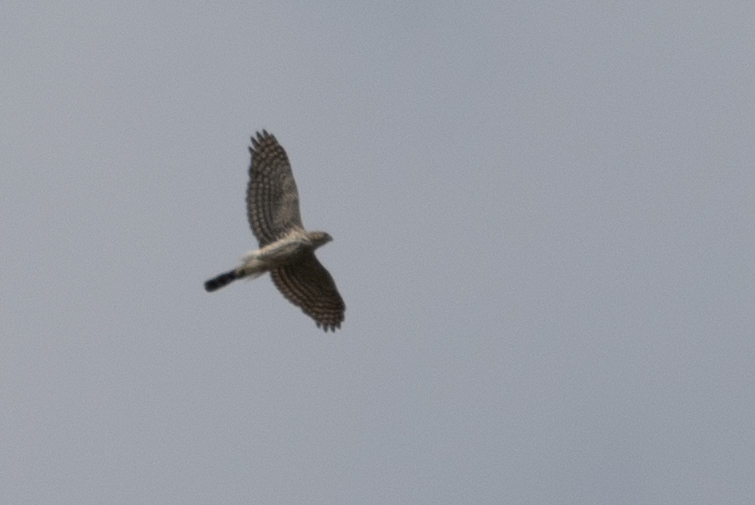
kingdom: Animalia
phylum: Chordata
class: Aves
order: Accipitriformes
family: Accipitridae
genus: Accipiter
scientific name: Accipiter cooperii
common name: Cooper's hawk
